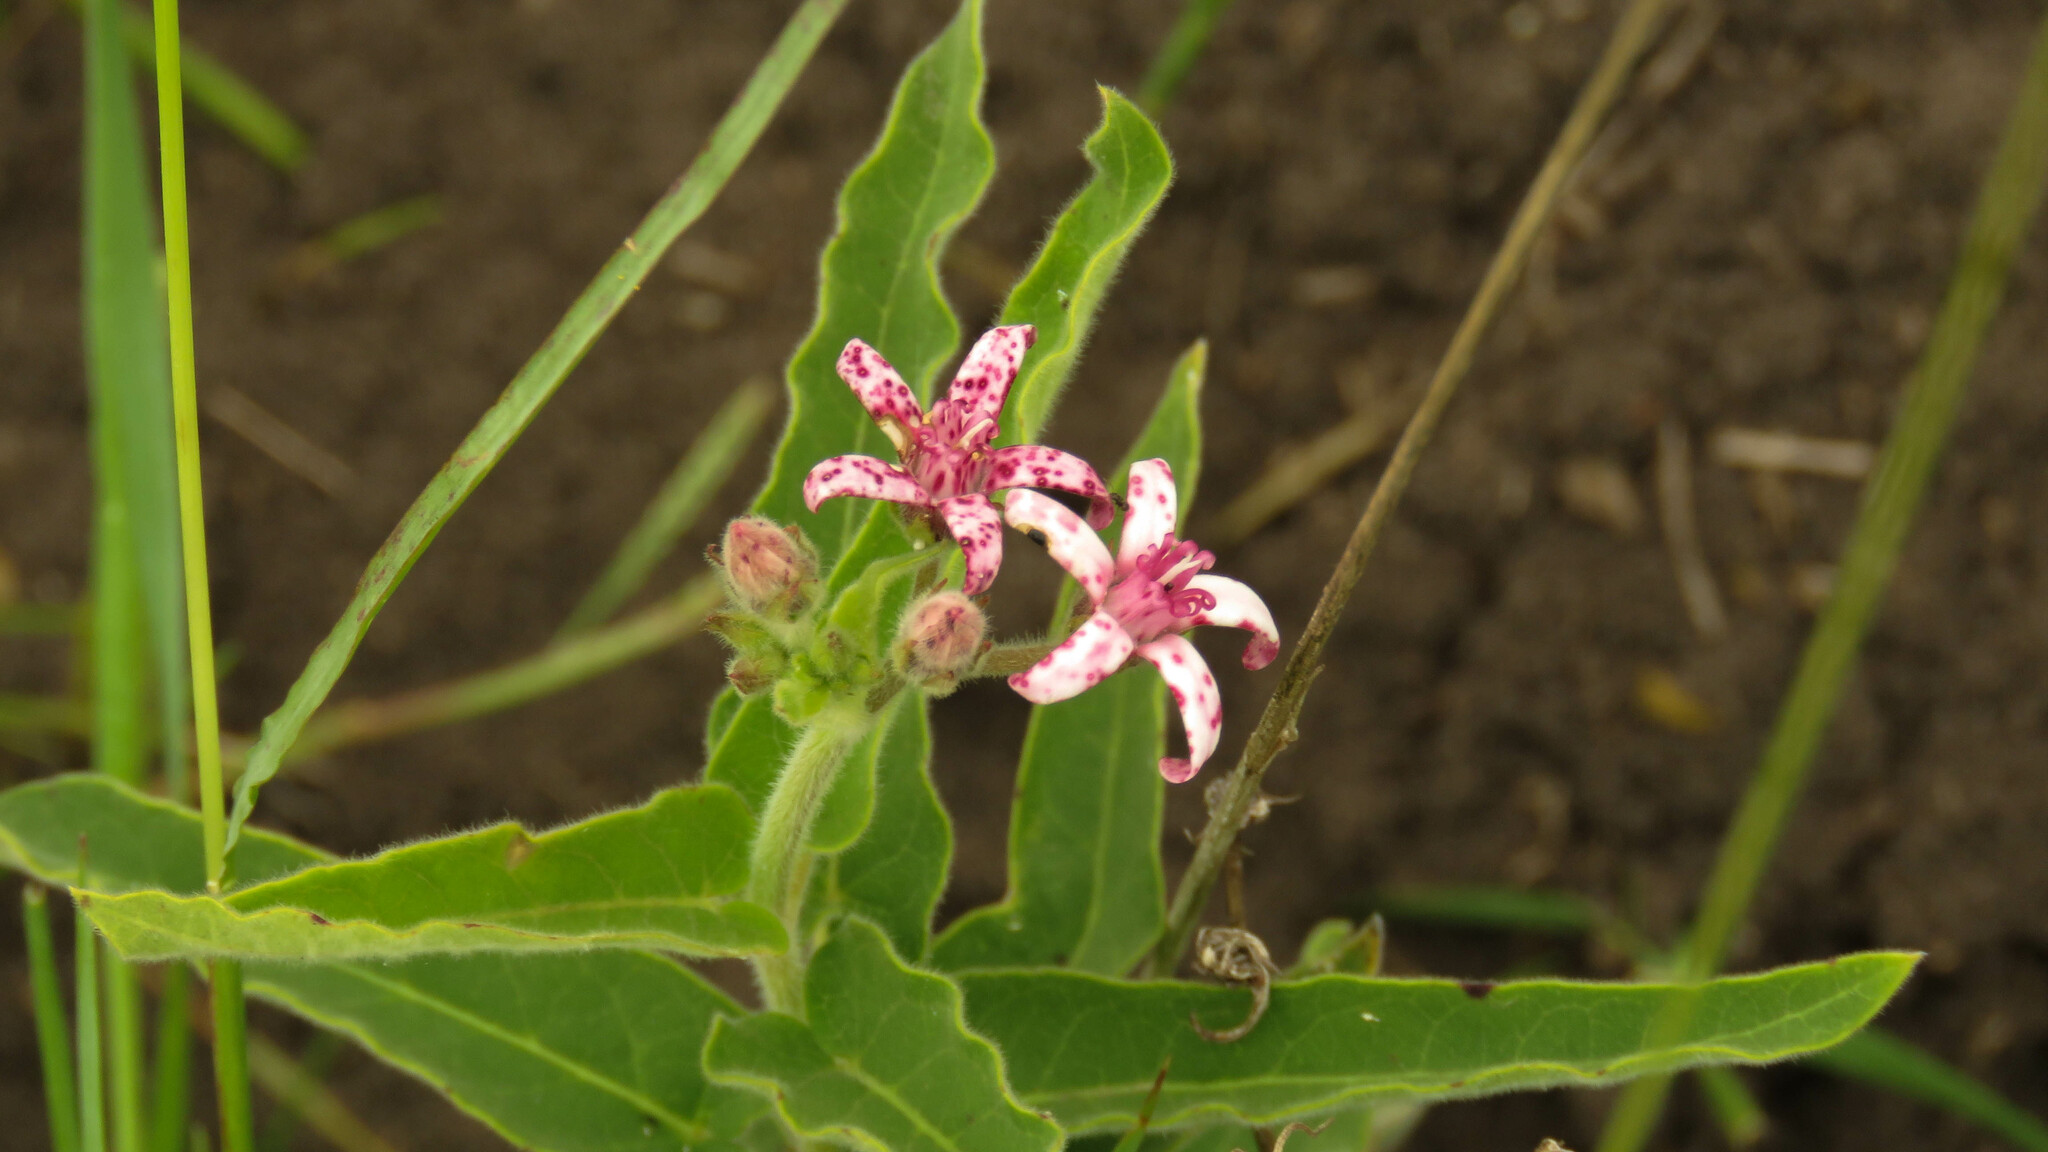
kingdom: Plantae
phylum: Tracheophyta
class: Magnoliopsida
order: Gentianales
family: Apocynaceae
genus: Oxypetalum
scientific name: Oxypetalum solanoides
